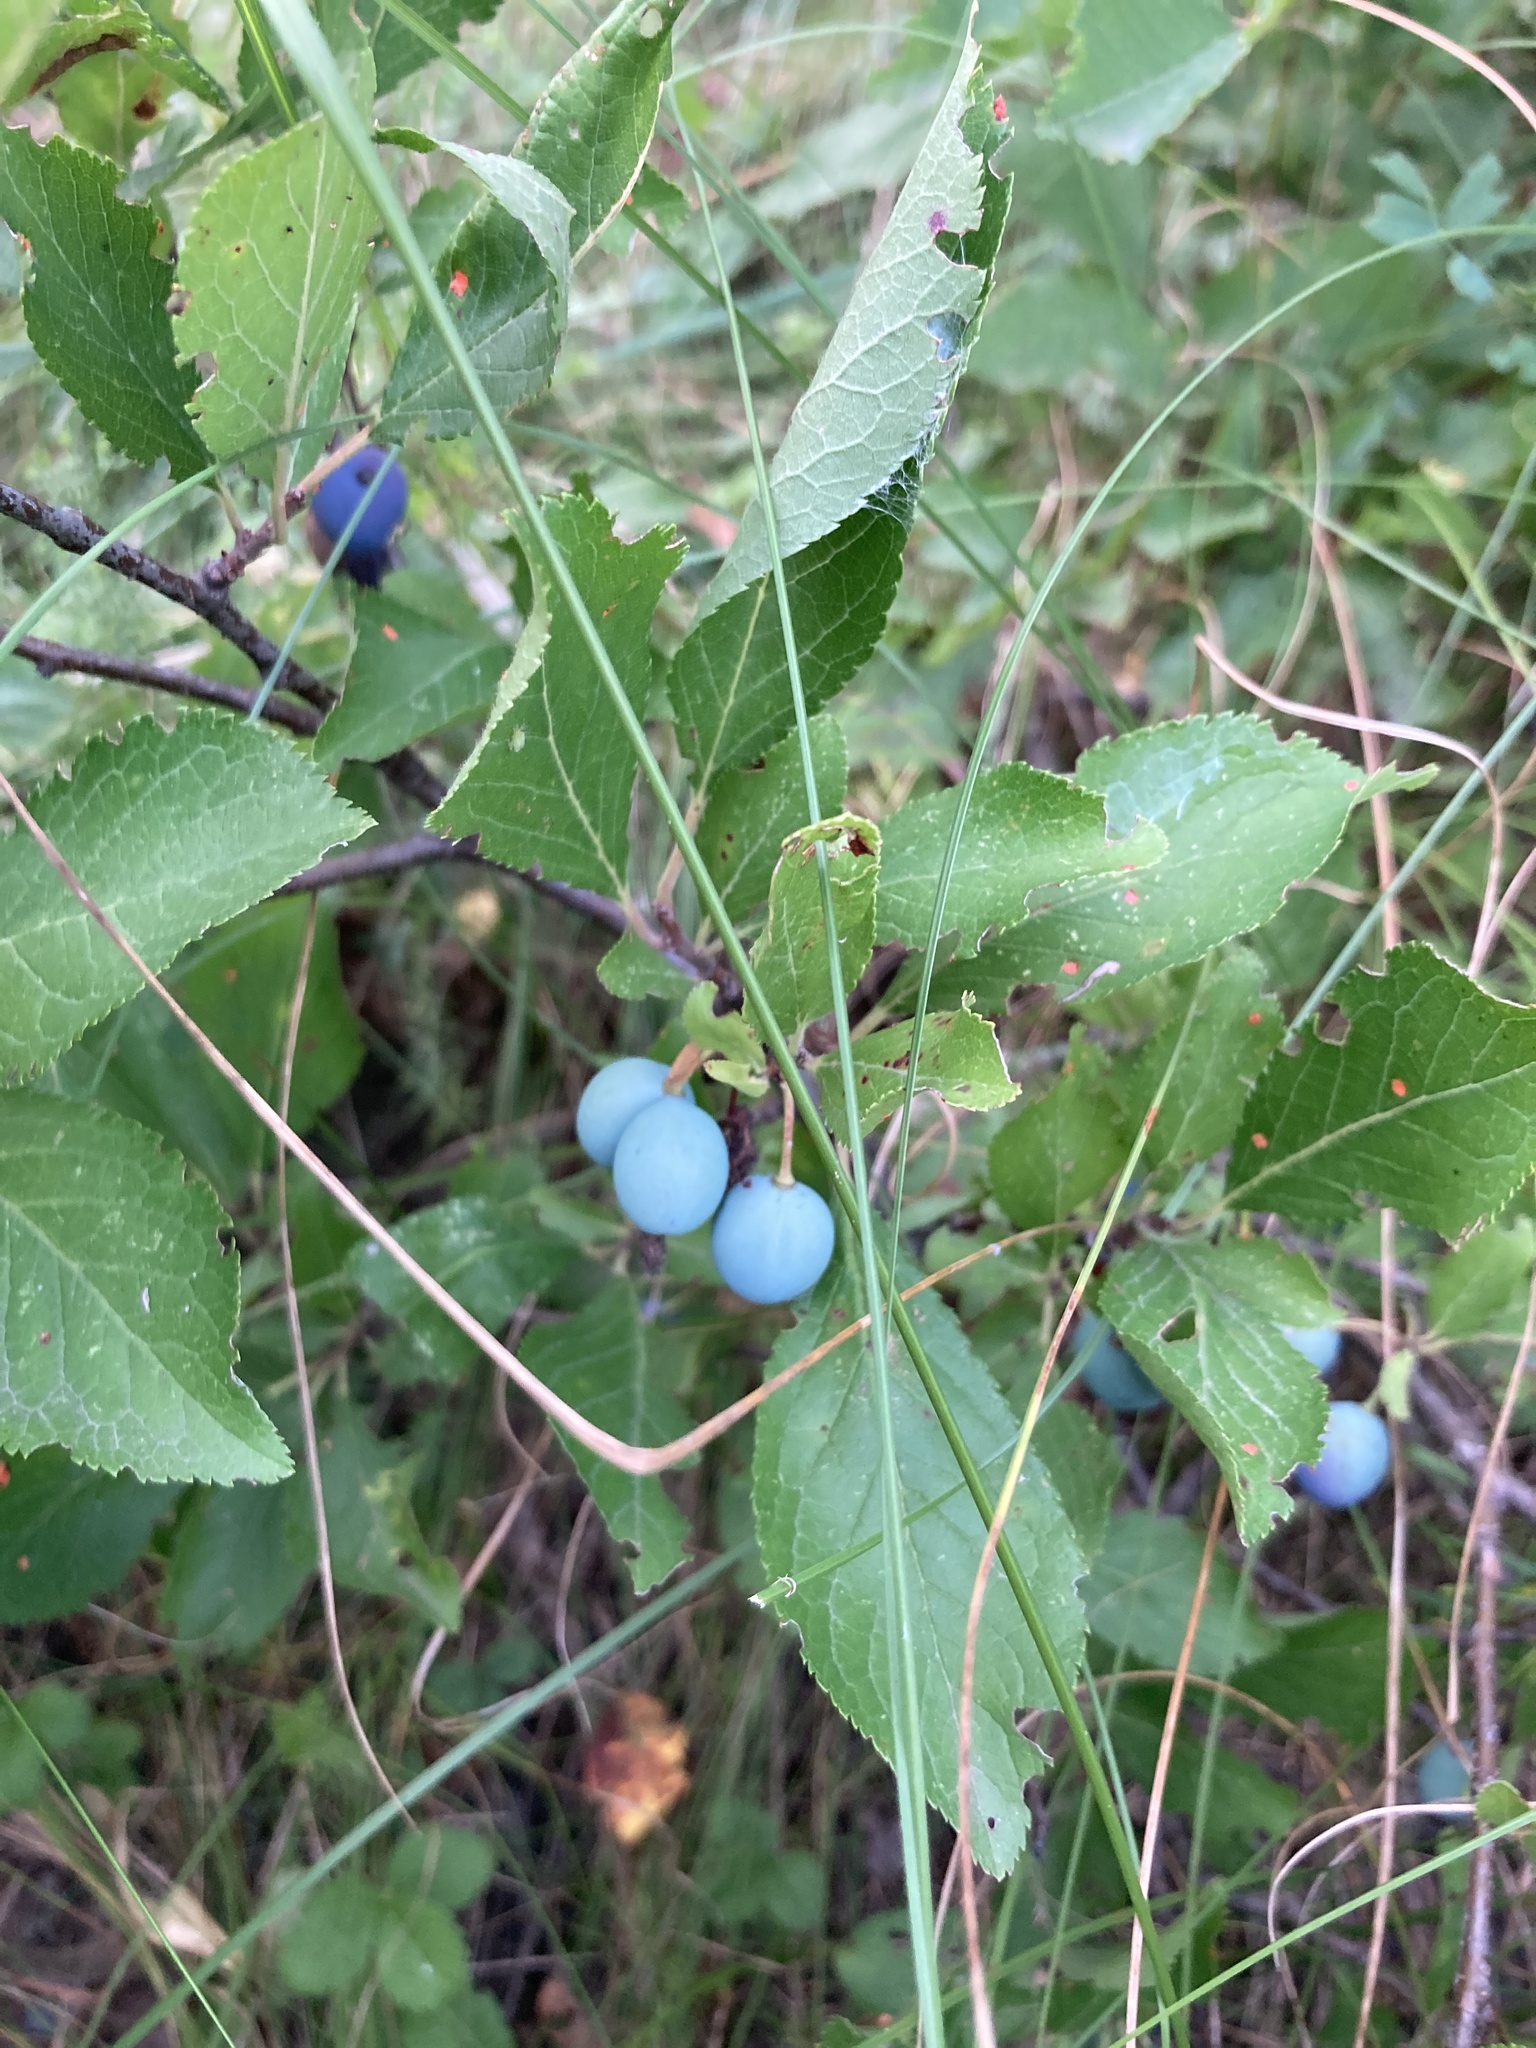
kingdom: Plantae
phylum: Tracheophyta
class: Magnoliopsida
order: Rosales
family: Rosaceae
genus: Prunus
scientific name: Prunus spinosa
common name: Blackthorn
